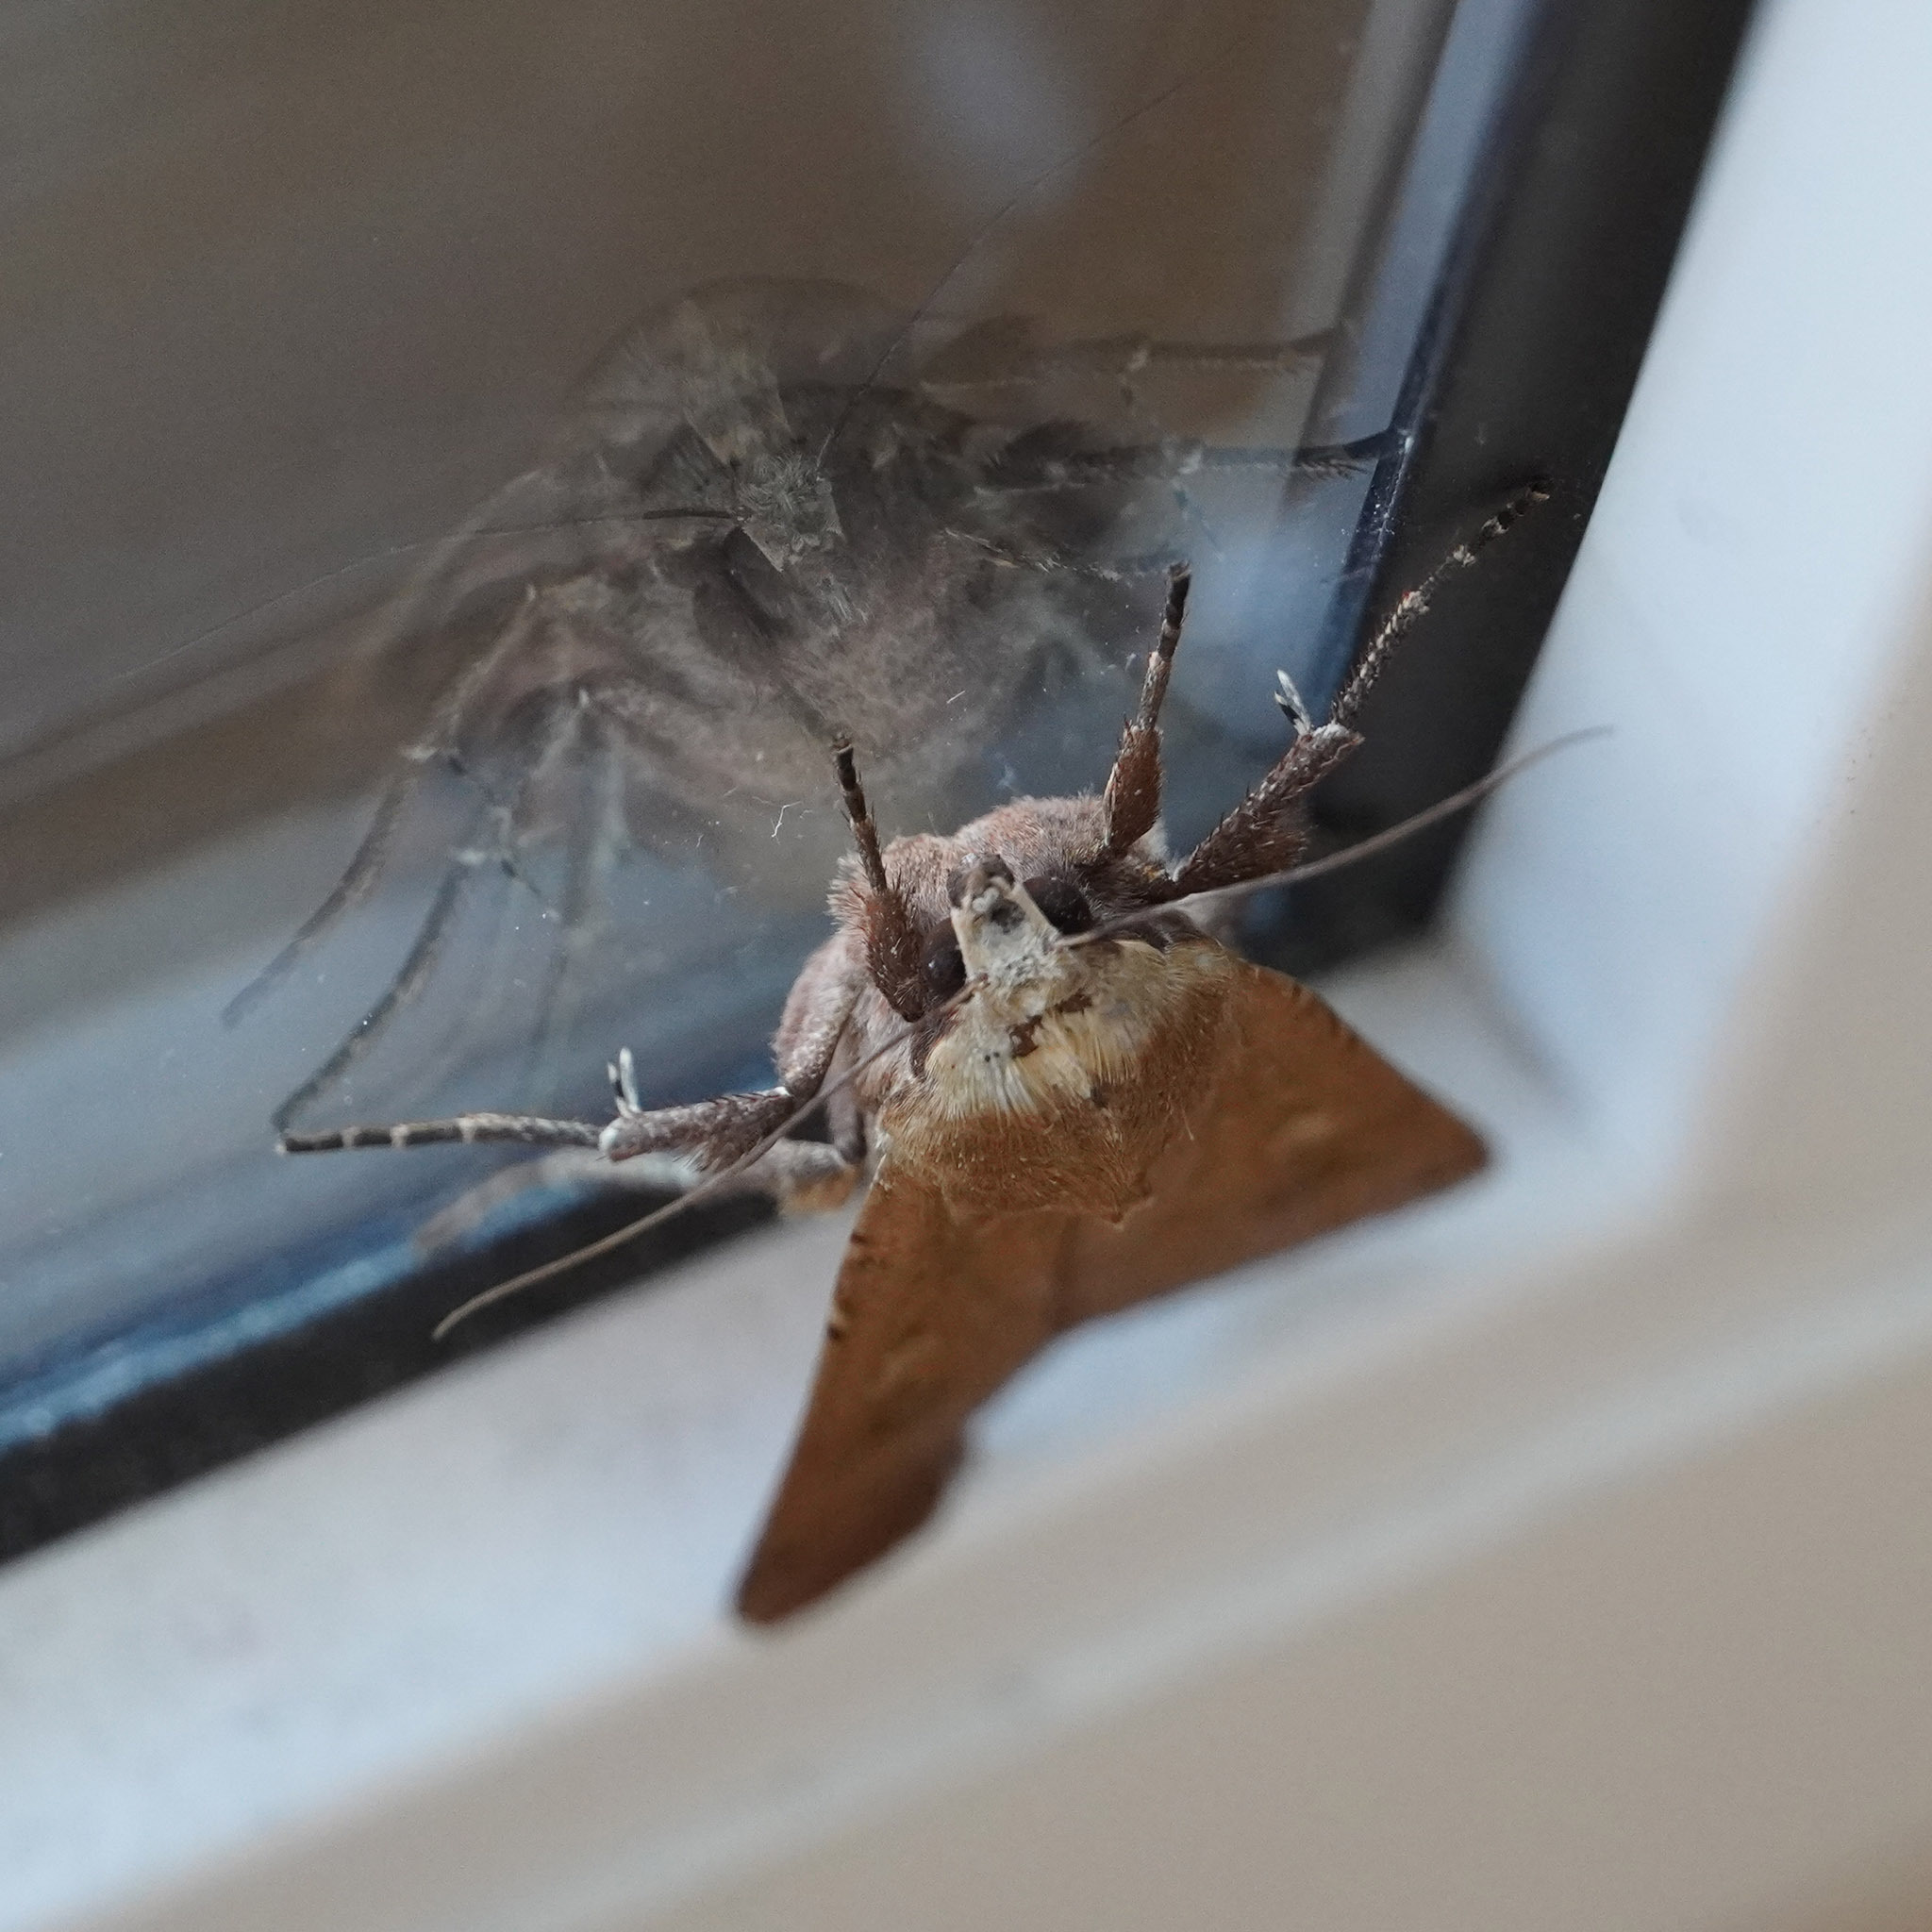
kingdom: Animalia
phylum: Arthropoda
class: Insecta
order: Lepidoptera
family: Noctuidae
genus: Noctua
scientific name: Noctua pronuba
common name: Large yellow underwing
